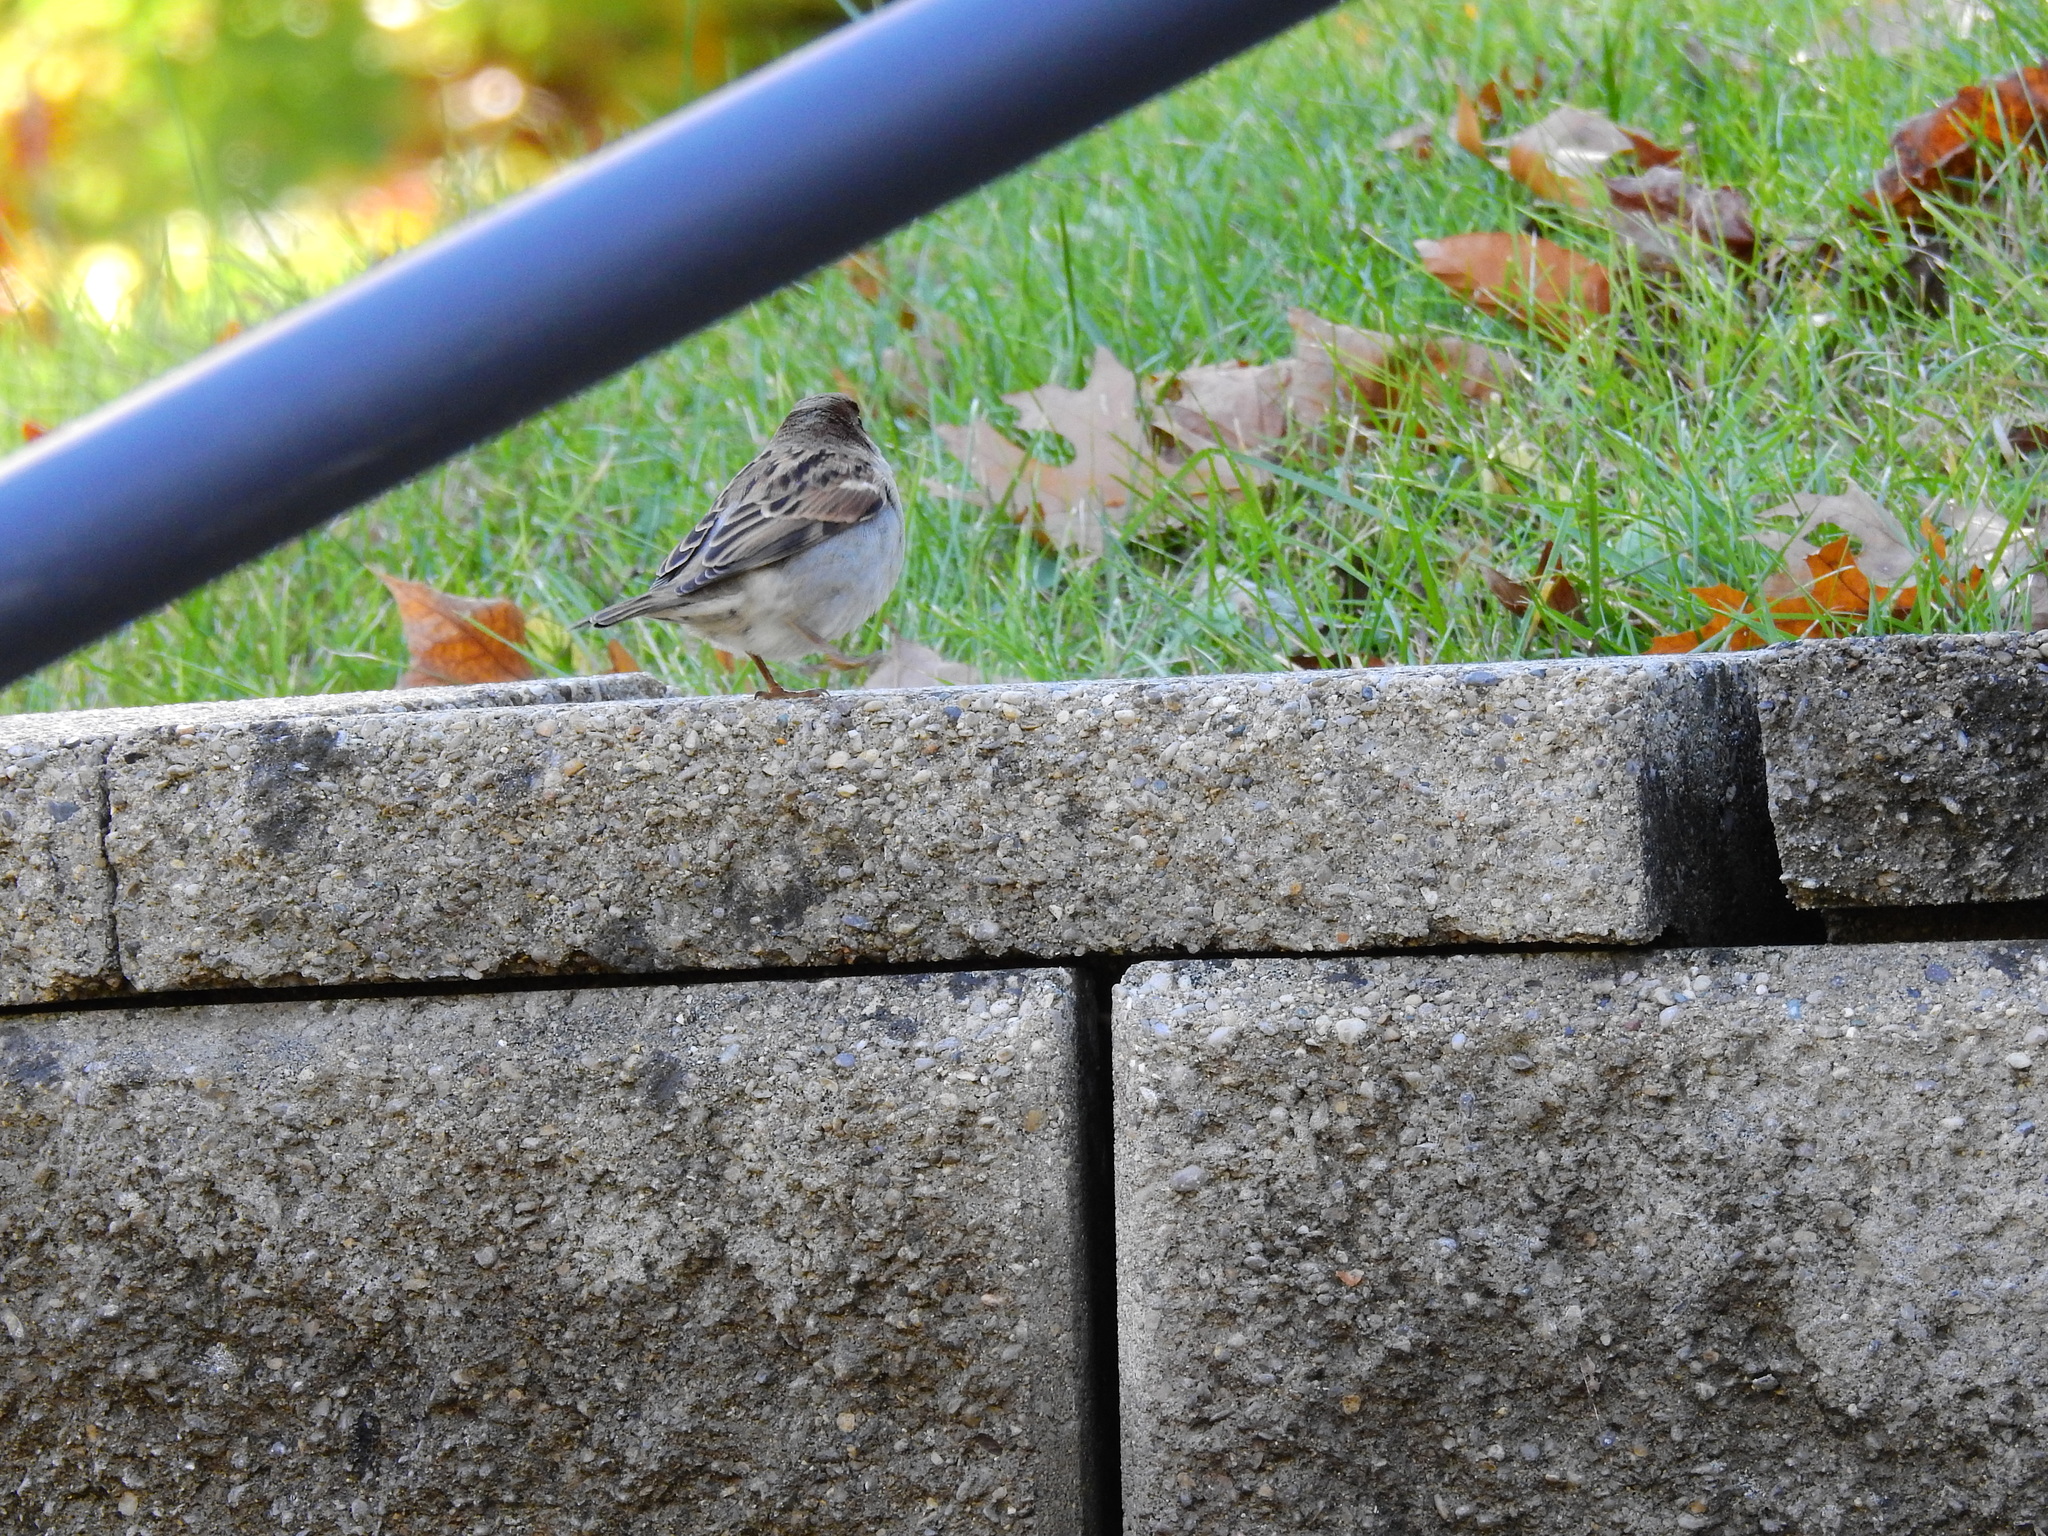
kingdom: Animalia
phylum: Chordata
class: Aves
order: Passeriformes
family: Passeridae
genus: Passer
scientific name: Passer domesticus
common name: House sparrow
